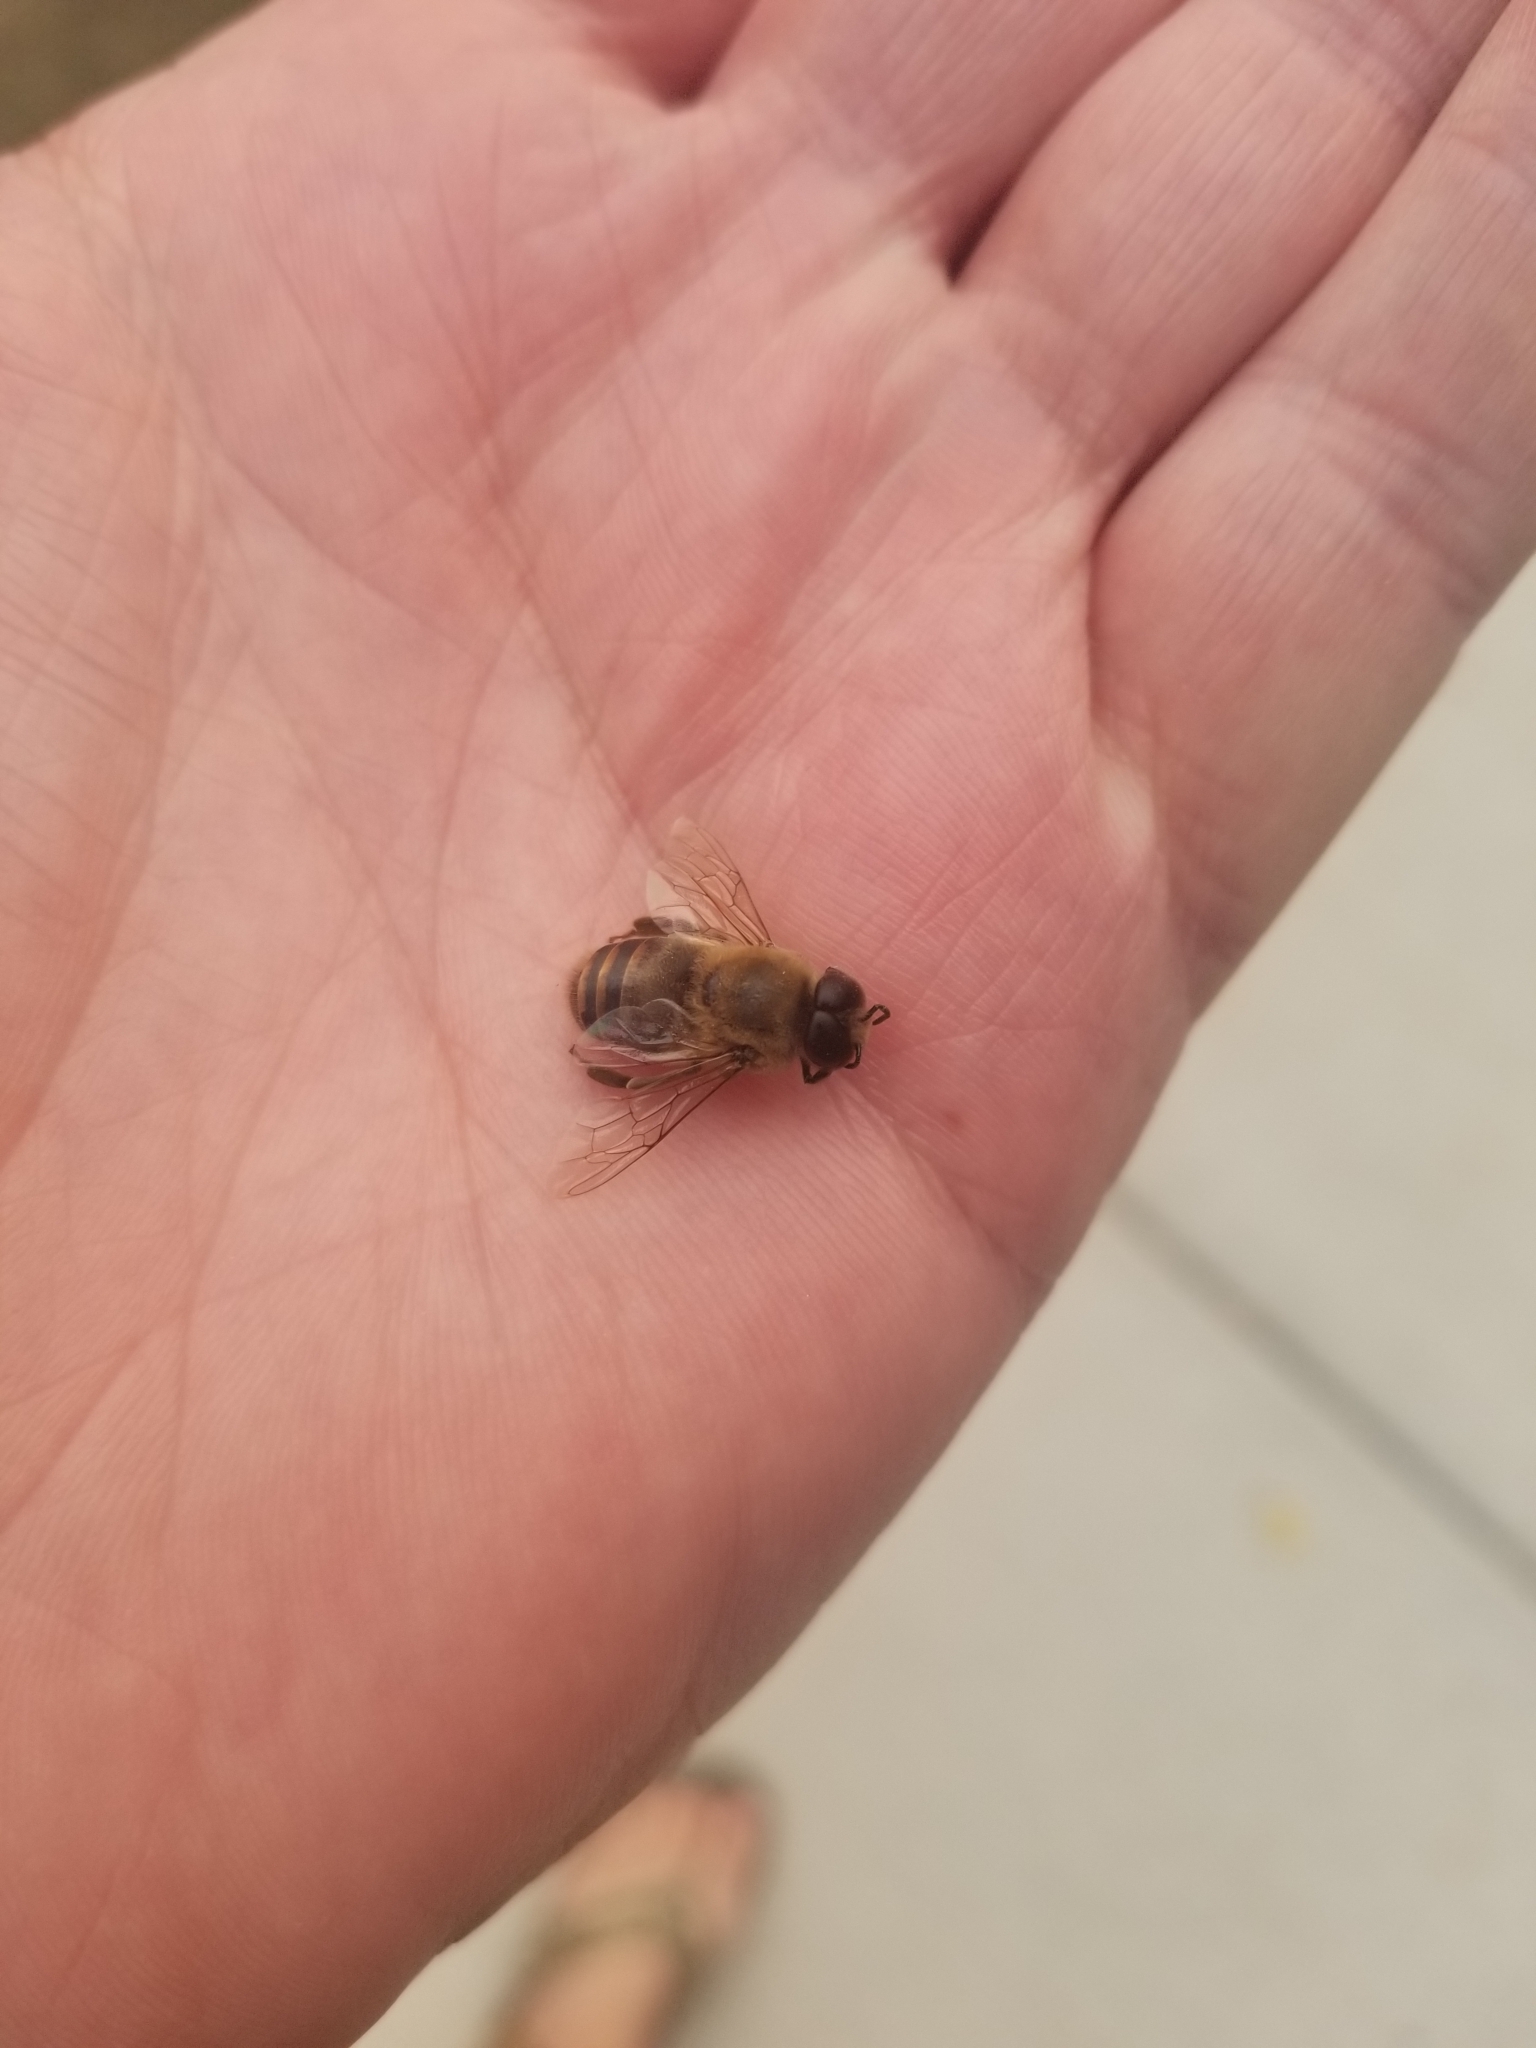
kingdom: Animalia
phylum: Arthropoda
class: Insecta
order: Hymenoptera
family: Apidae
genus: Apis
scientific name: Apis mellifera
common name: Honey bee
